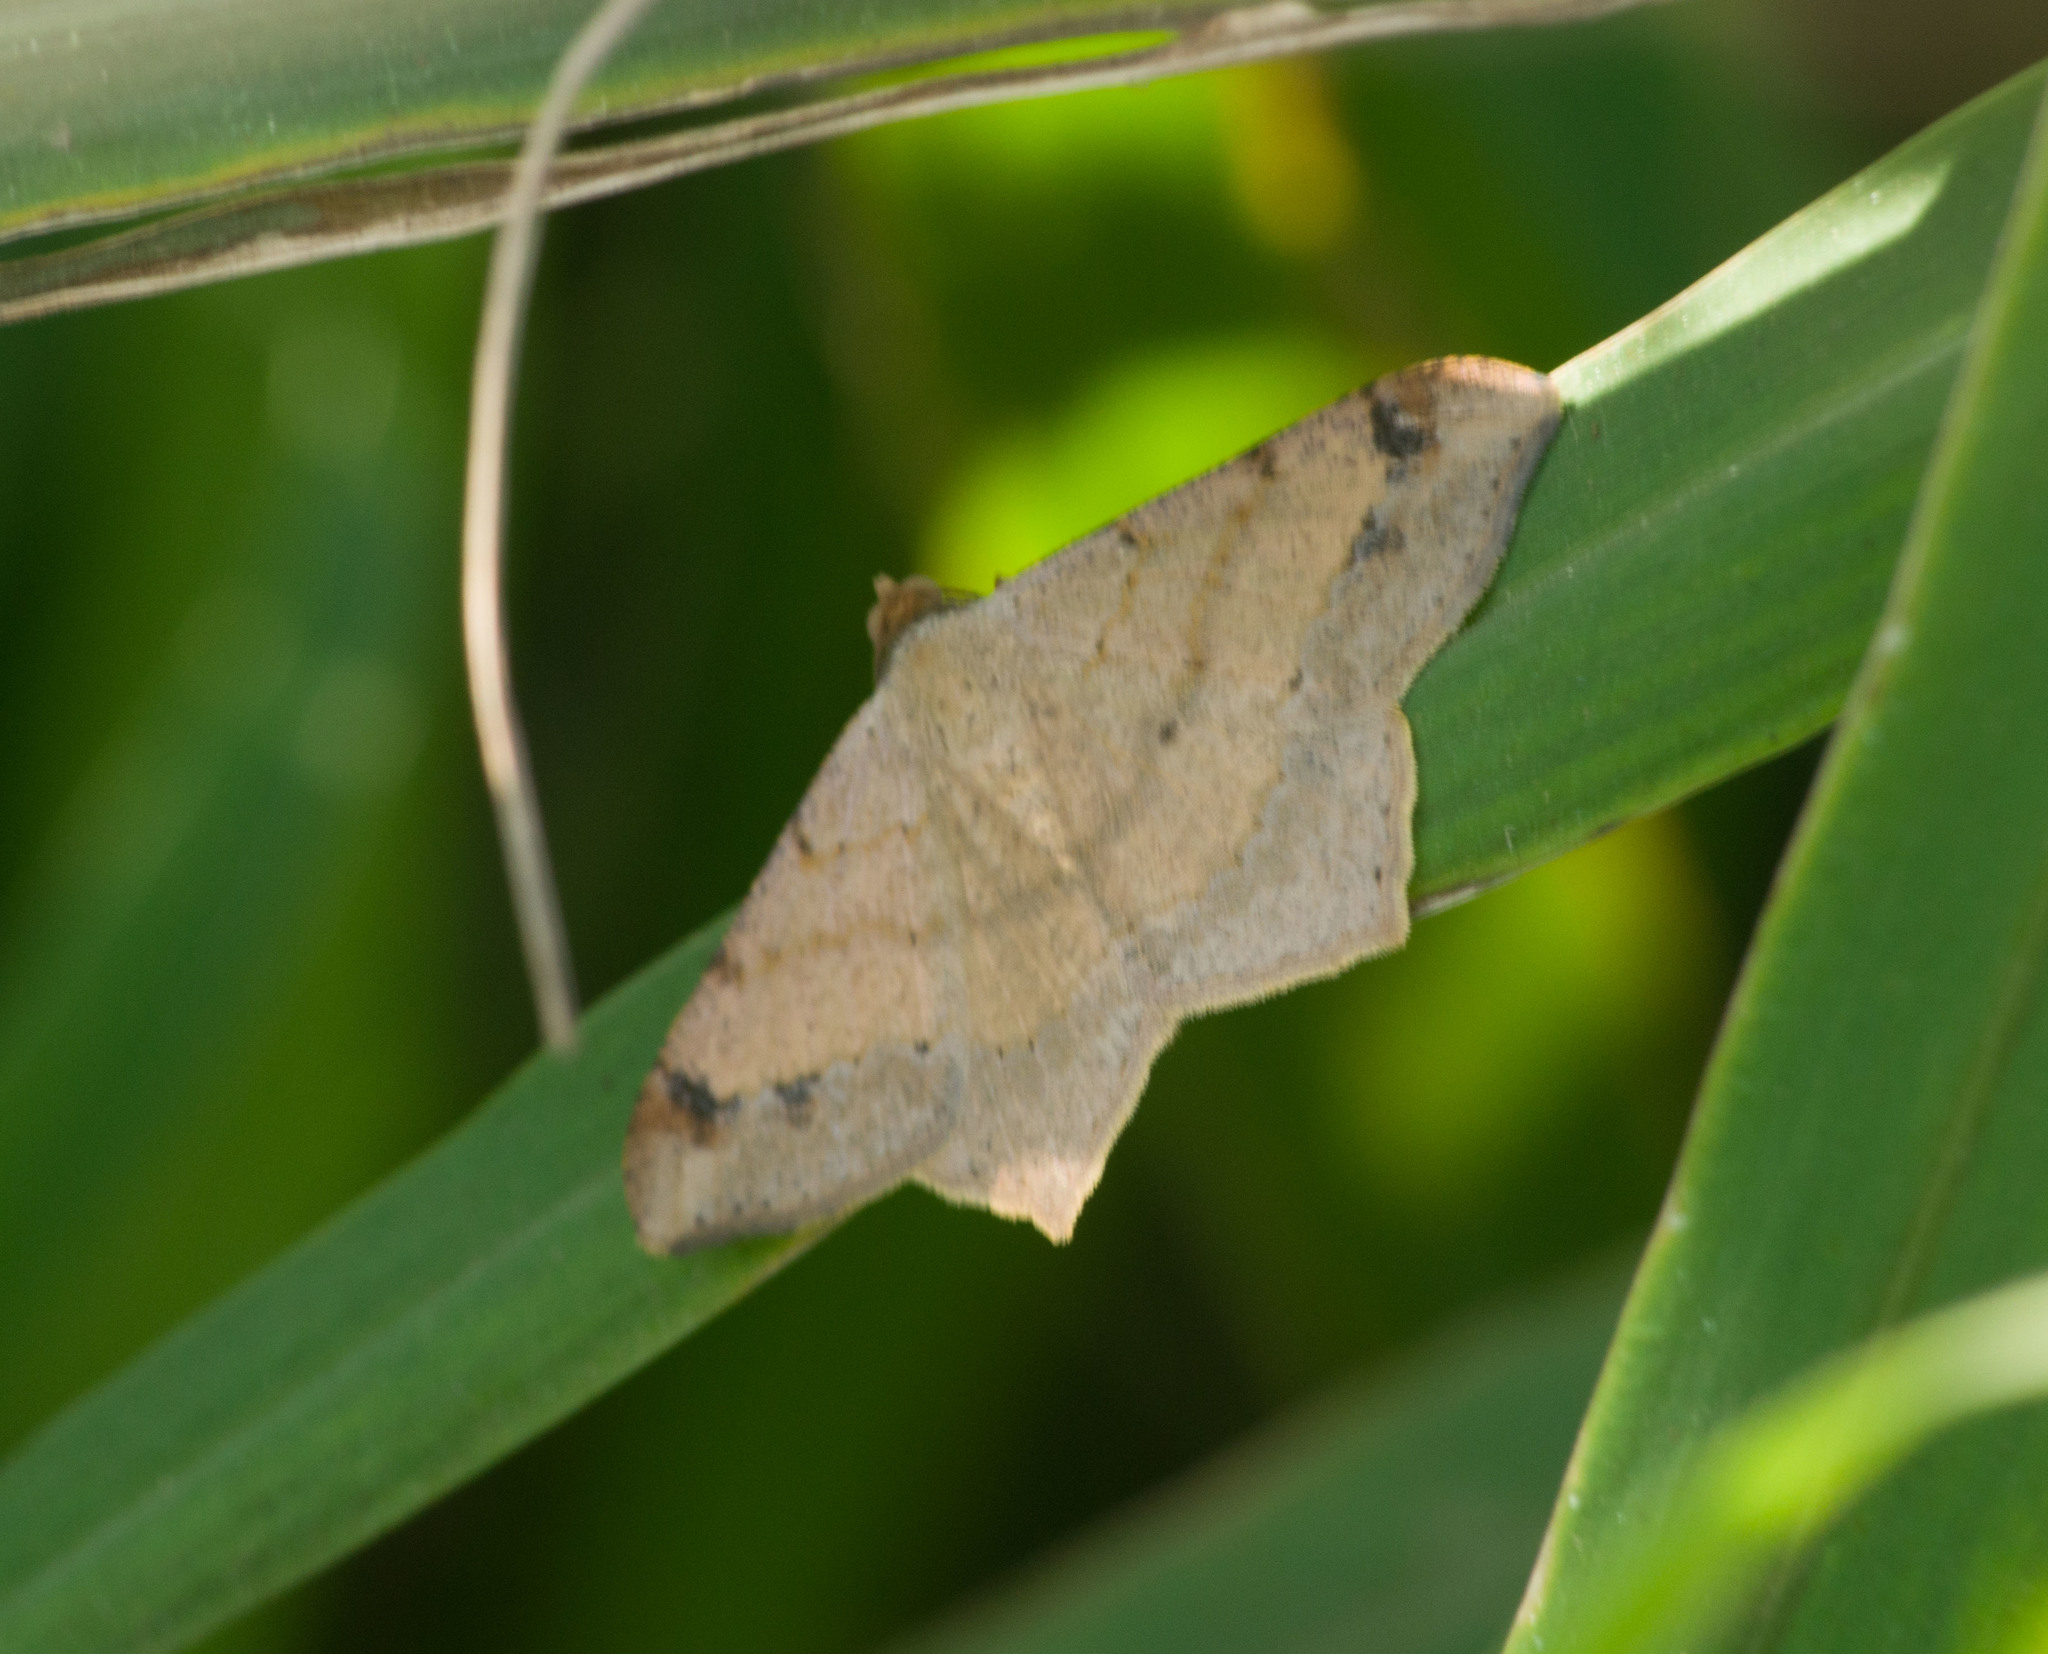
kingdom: Animalia
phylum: Arthropoda
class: Insecta
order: Lepidoptera
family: Geometridae
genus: Macaria
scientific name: Macaria abydata
